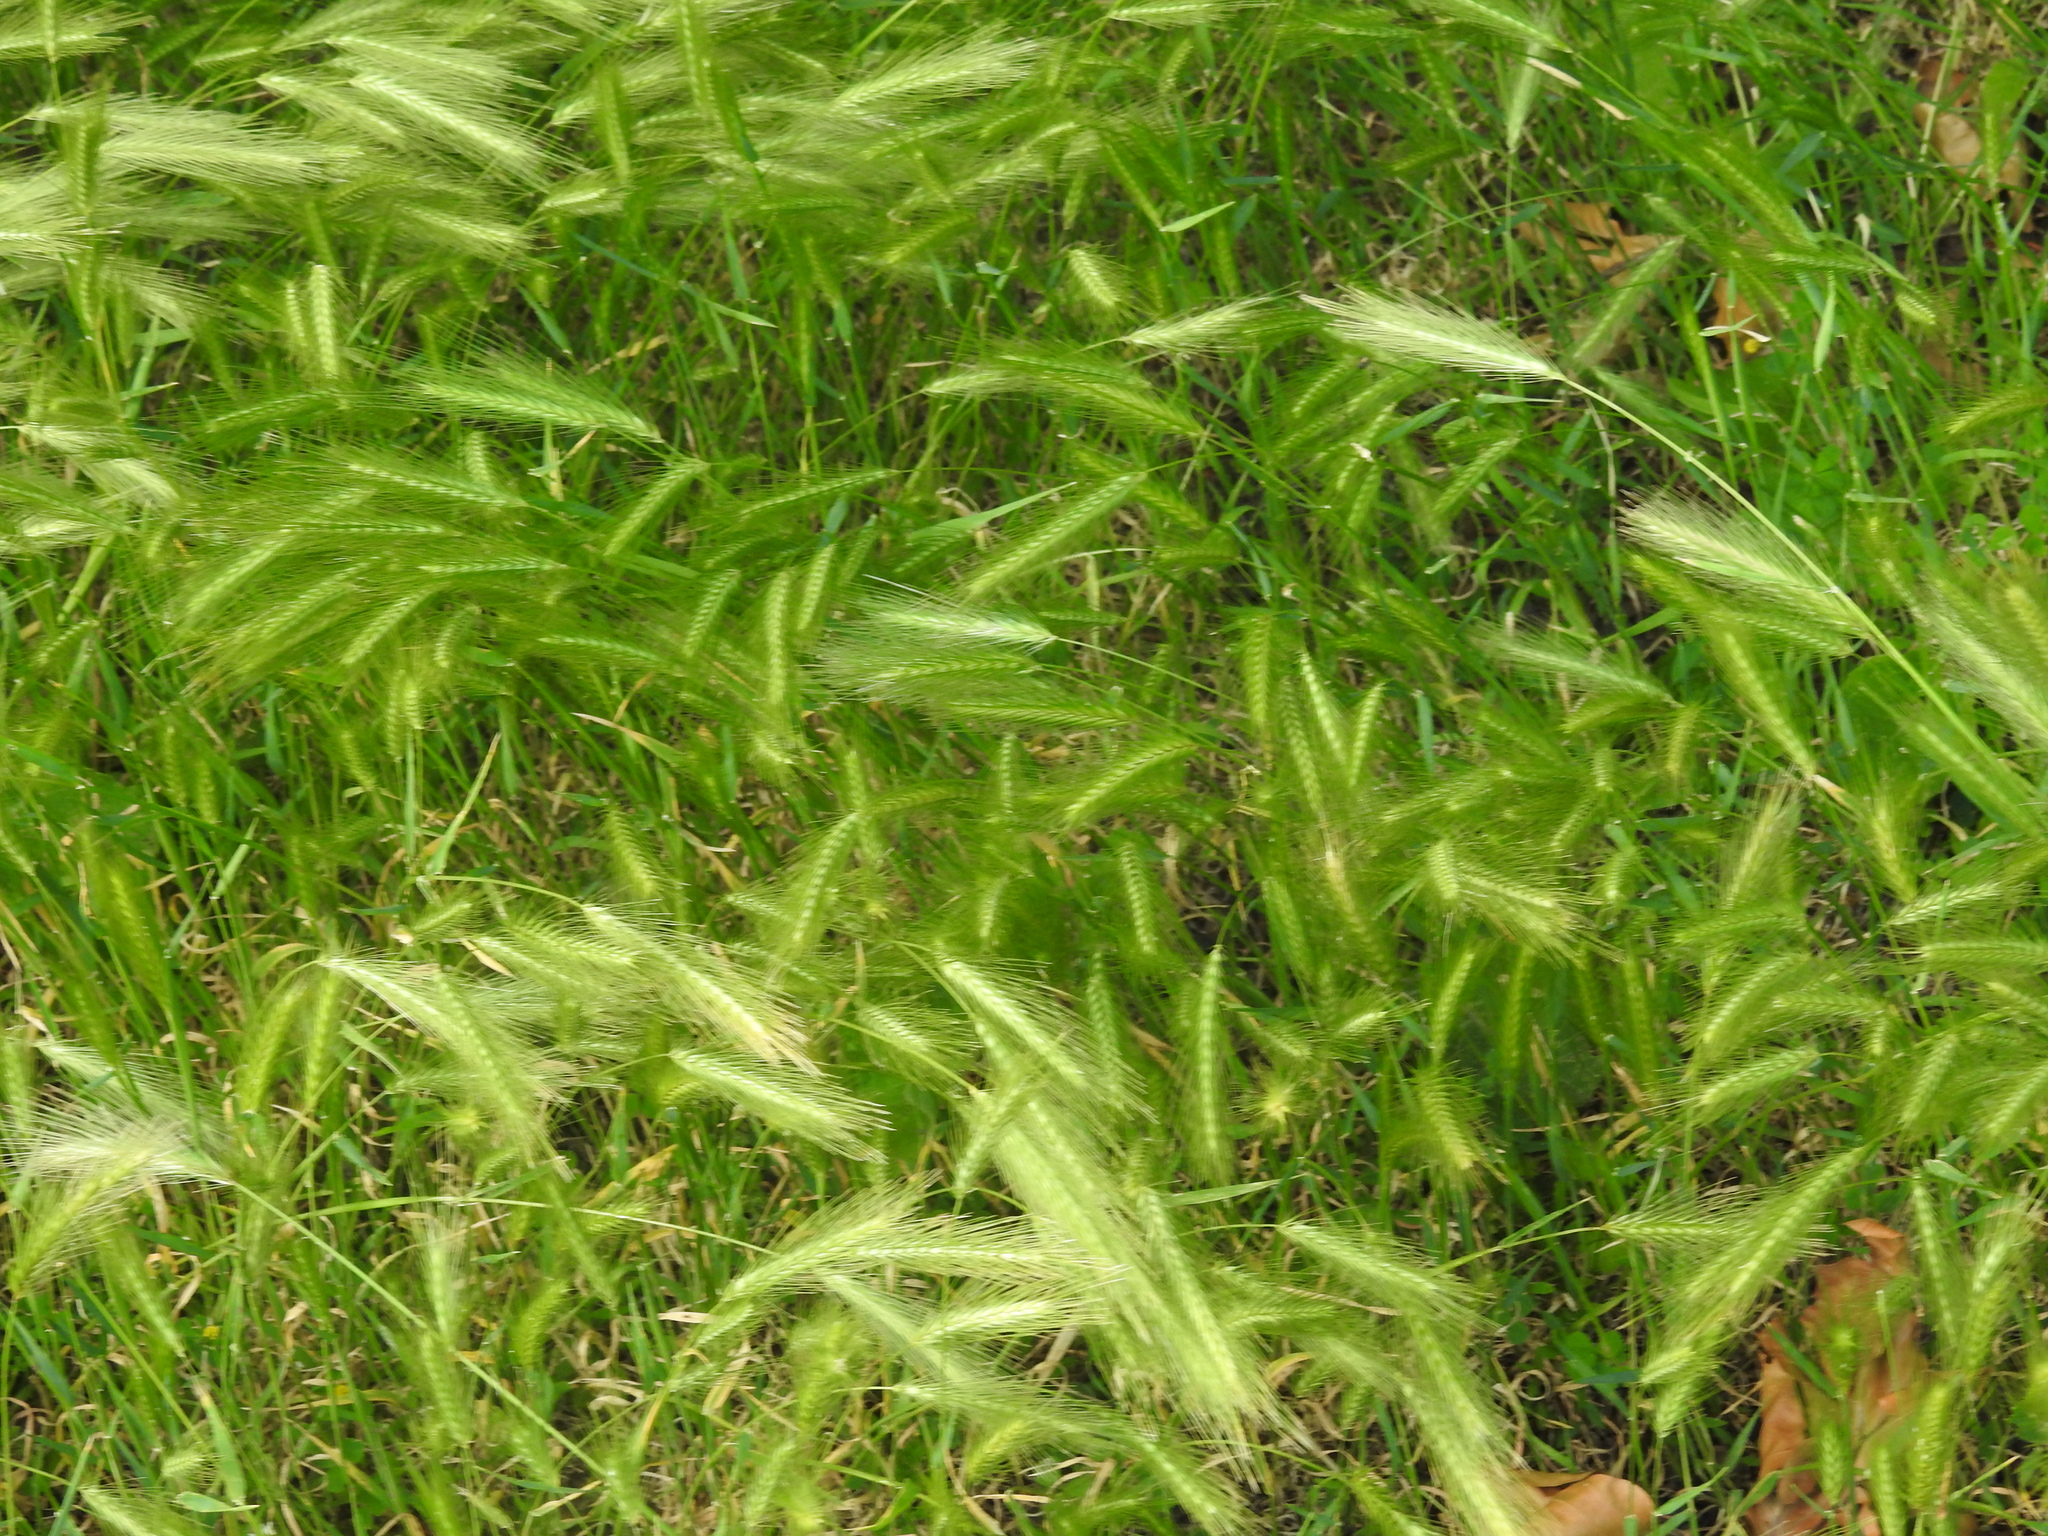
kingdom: Plantae
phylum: Tracheophyta
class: Liliopsida
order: Poales
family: Poaceae
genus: Hordeum
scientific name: Hordeum murinum
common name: Wall barley
